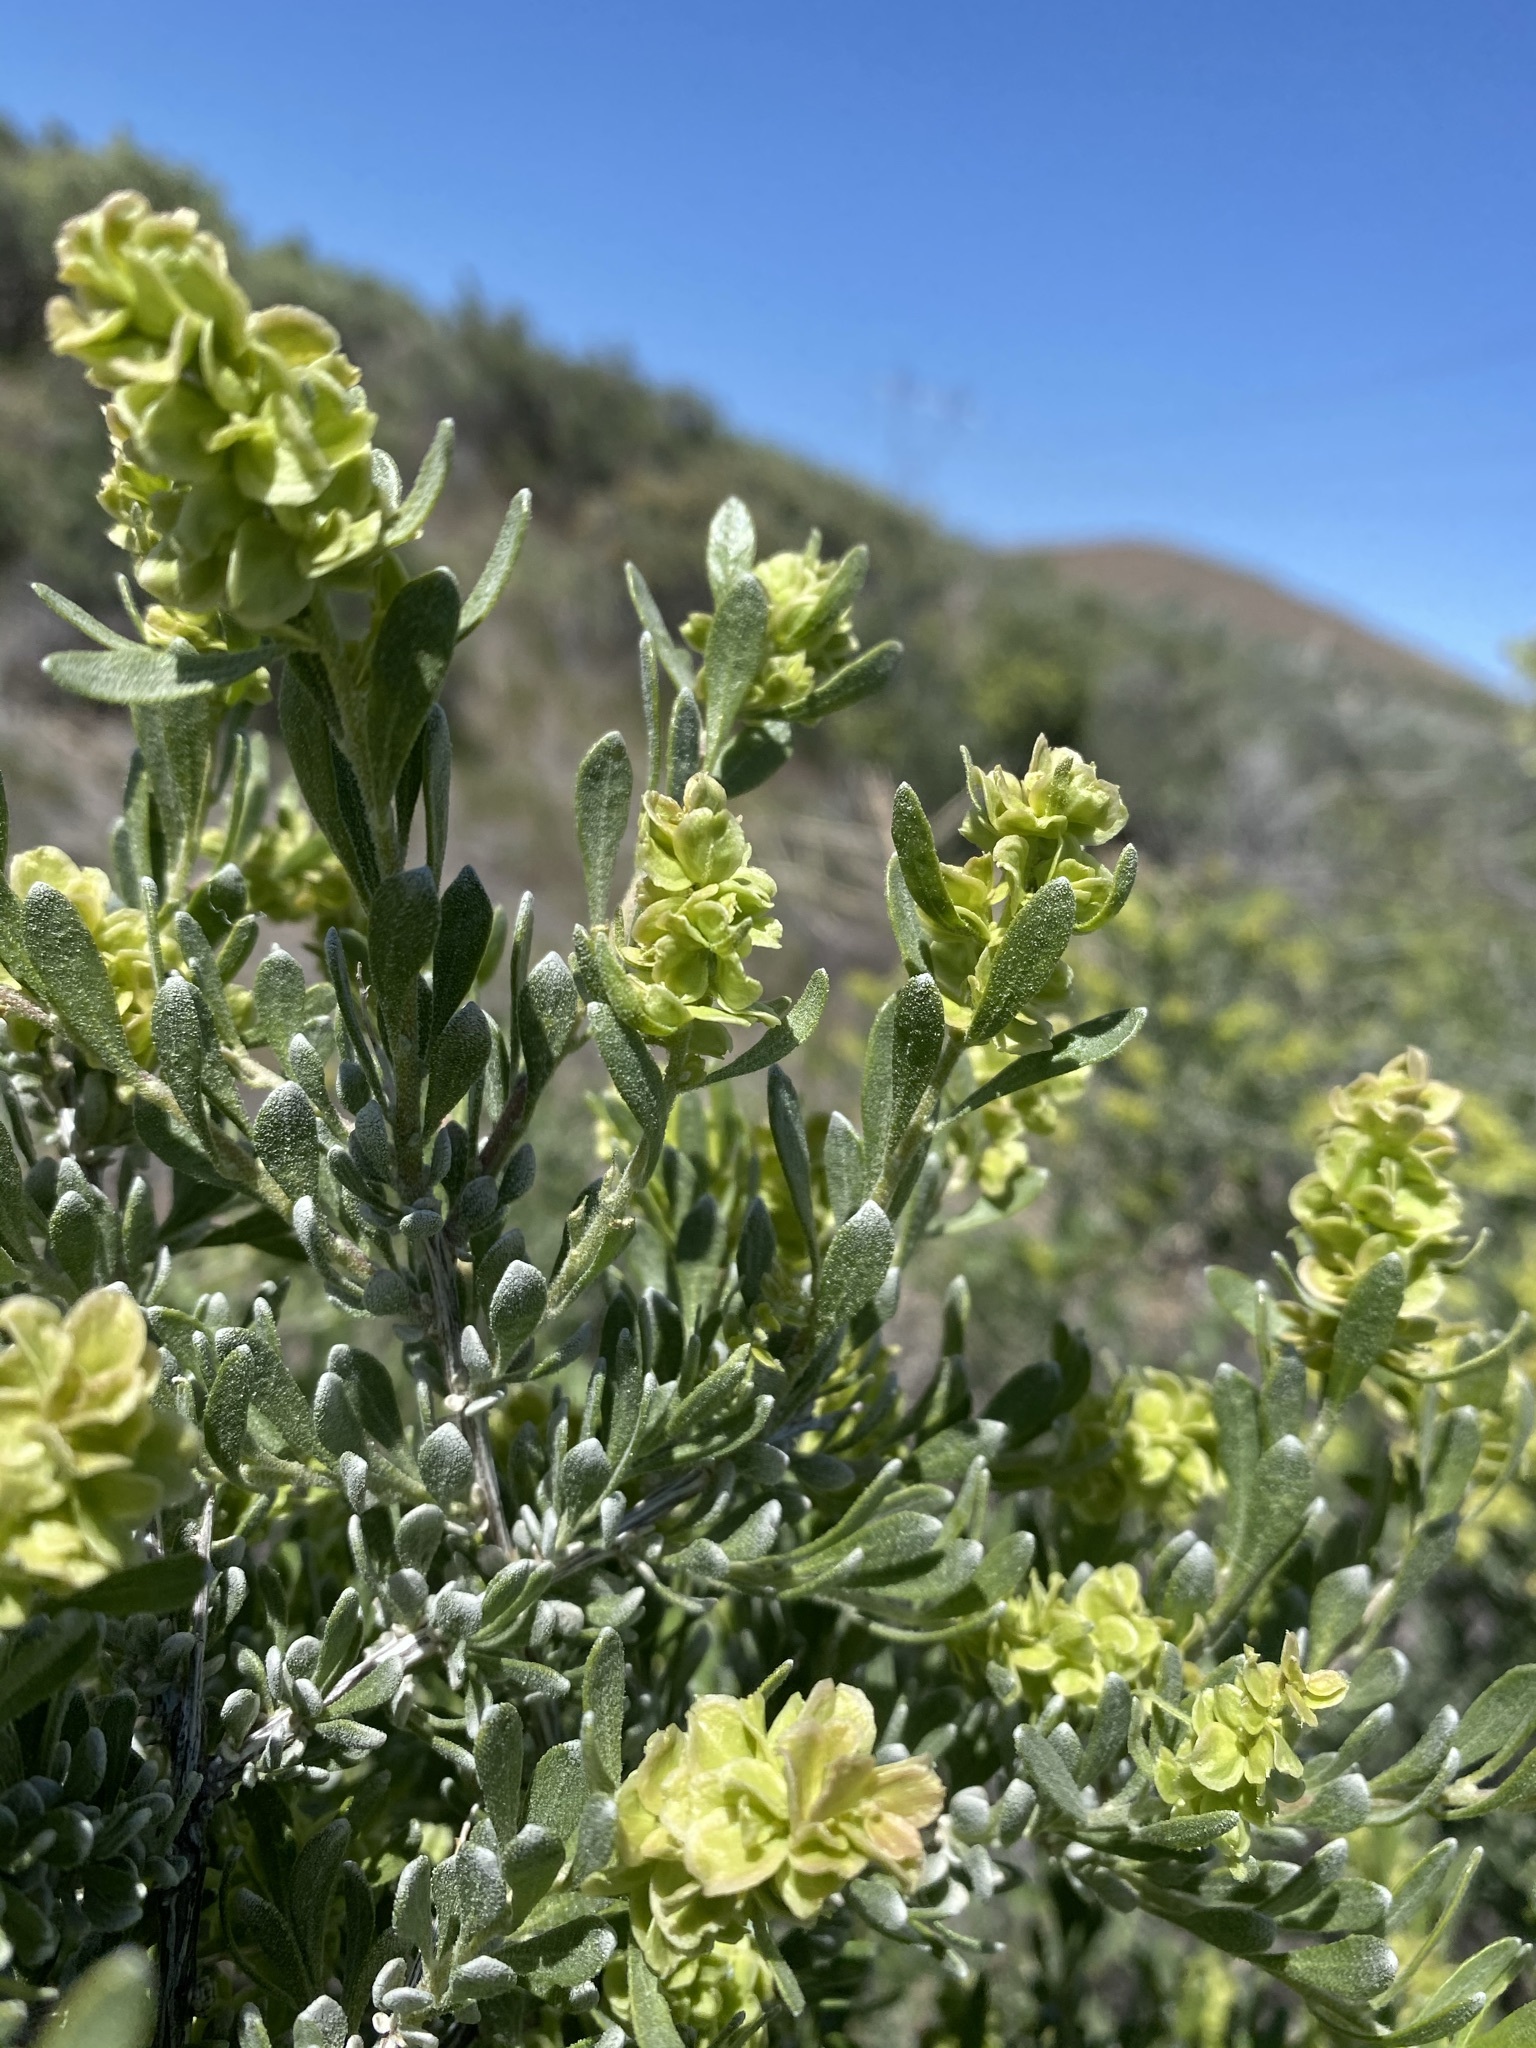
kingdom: Plantae
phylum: Tracheophyta
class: Magnoliopsida
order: Caryophyllales
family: Amaranthaceae
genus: Grayia
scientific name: Grayia spinosa
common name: Spiny hopsage
